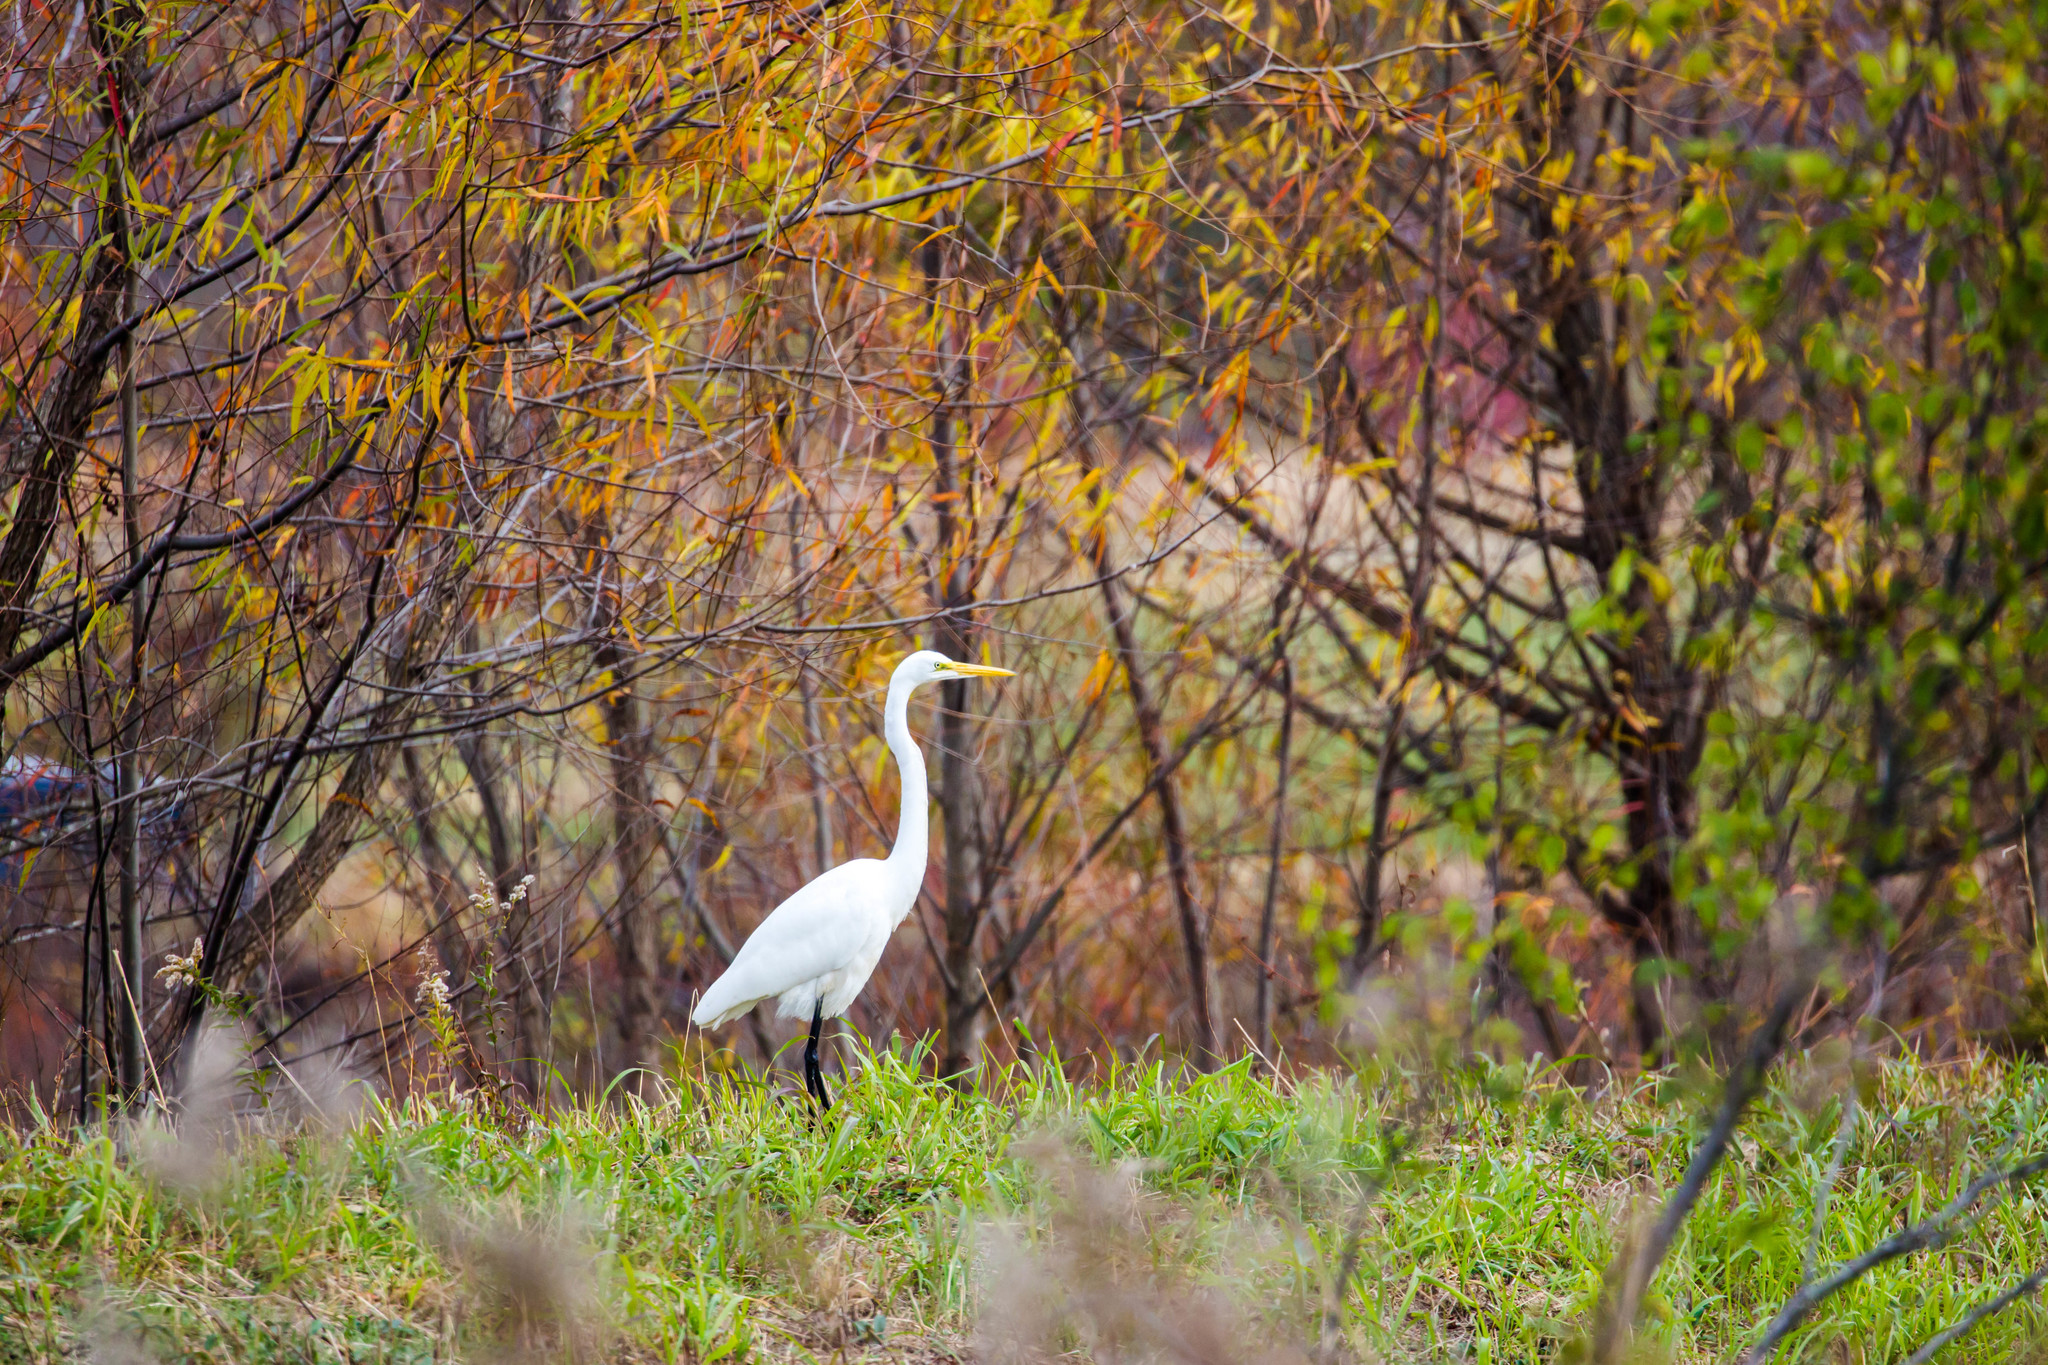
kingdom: Animalia
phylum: Chordata
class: Aves
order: Pelecaniformes
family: Ardeidae
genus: Ardea
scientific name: Ardea alba
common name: Great egret
